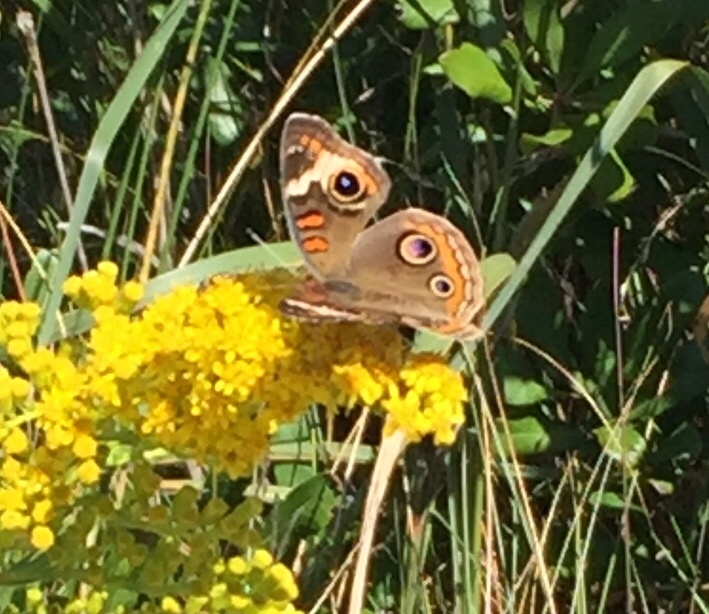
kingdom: Animalia
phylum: Arthropoda
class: Insecta
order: Lepidoptera
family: Nymphalidae
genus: Junonia
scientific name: Junonia coenia
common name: Common buckeye
